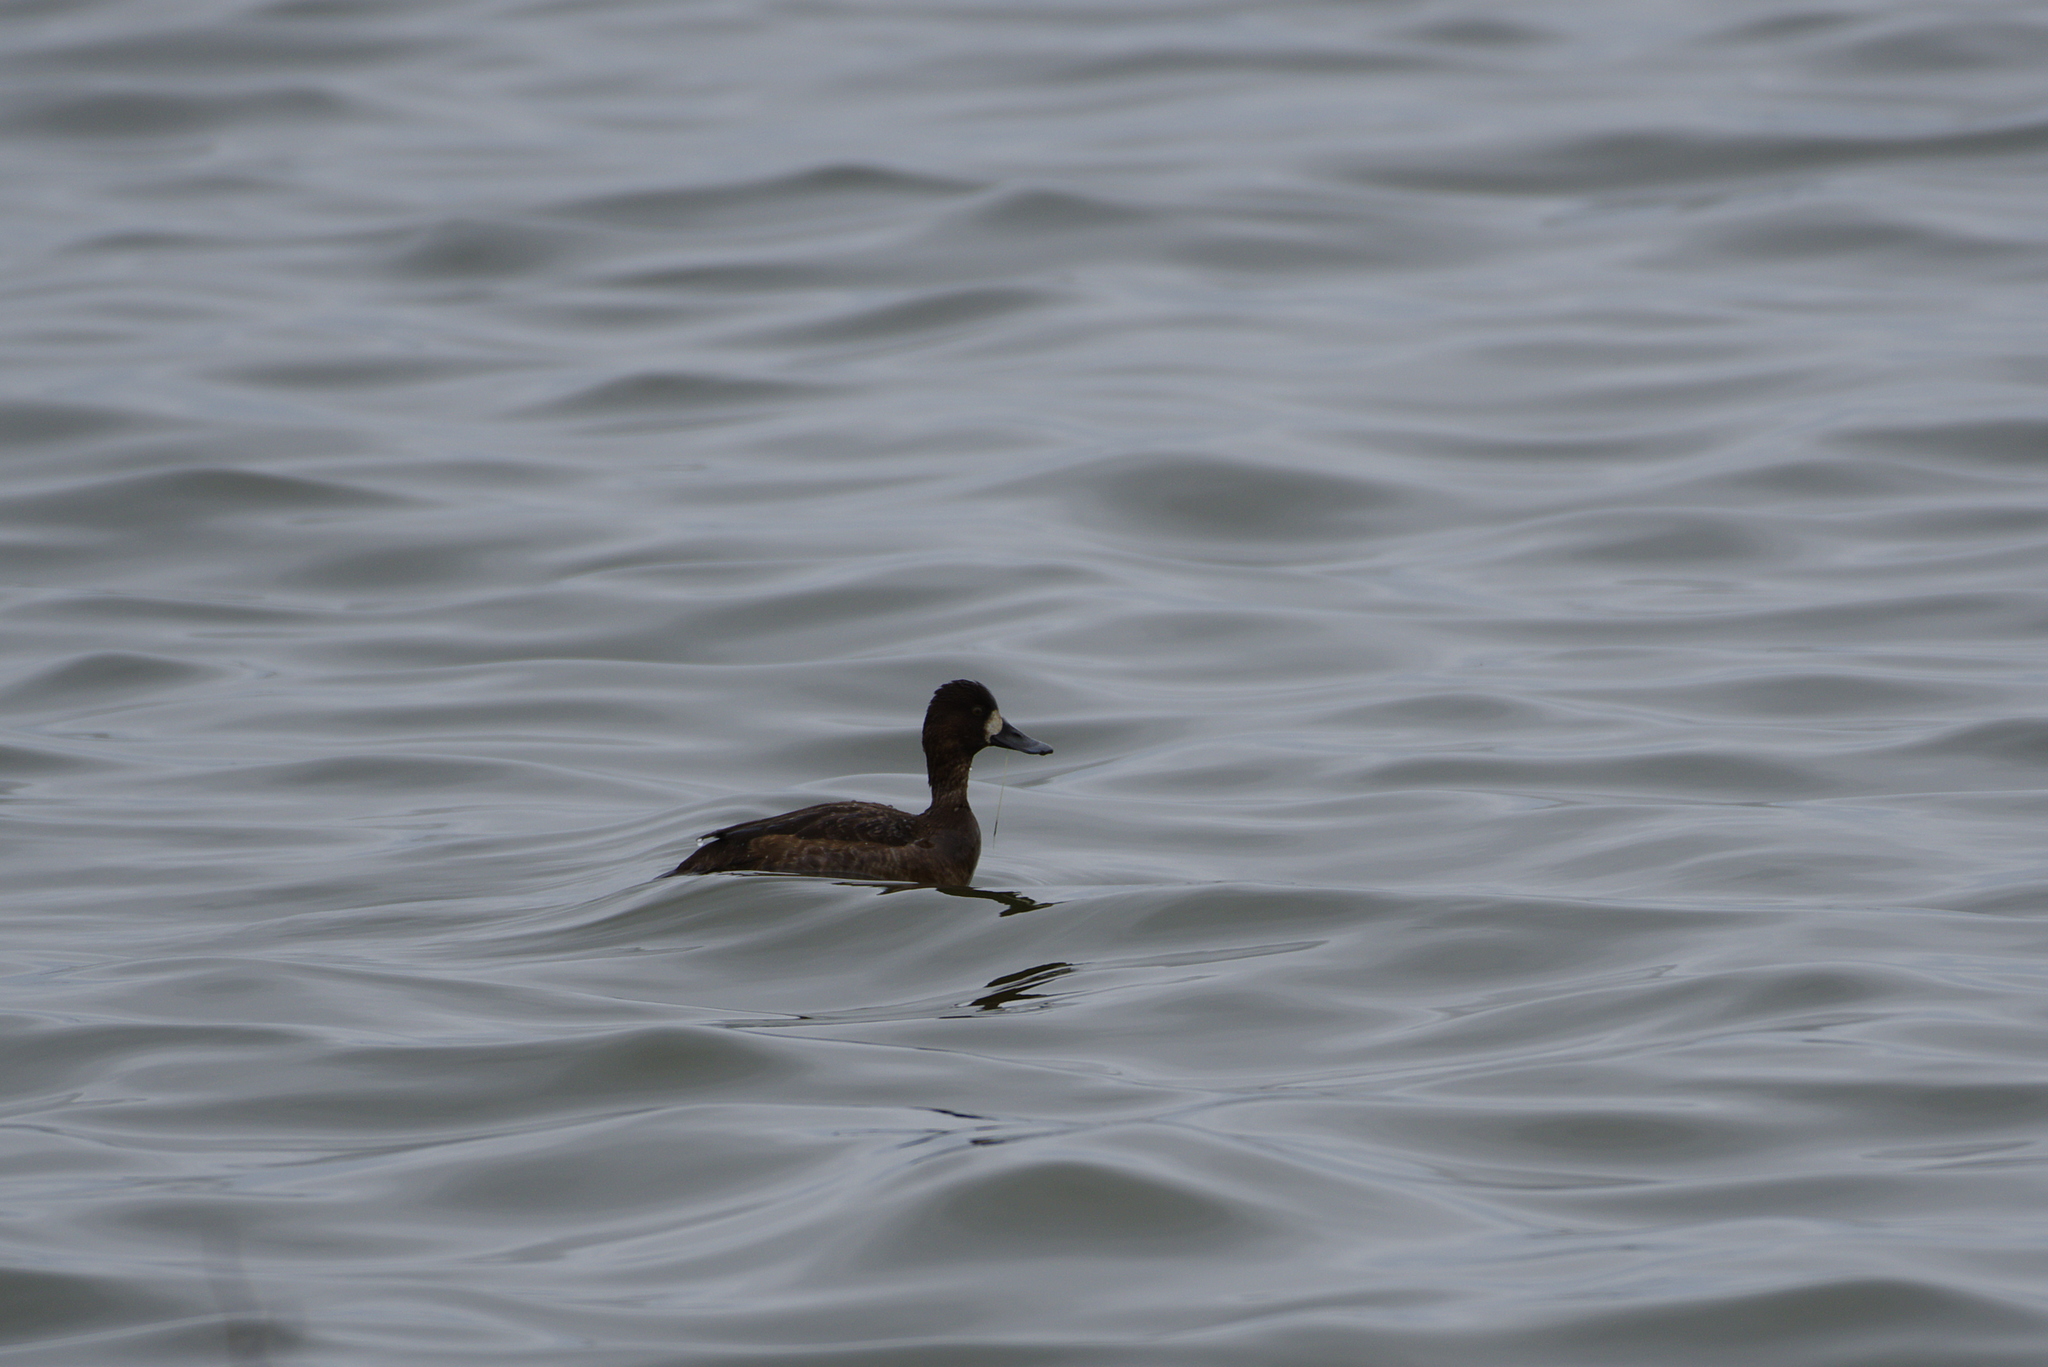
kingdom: Animalia
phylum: Chordata
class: Aves
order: Anseriformes
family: Anatidae
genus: Aythya
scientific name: Aythya marila
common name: Greater scaup
